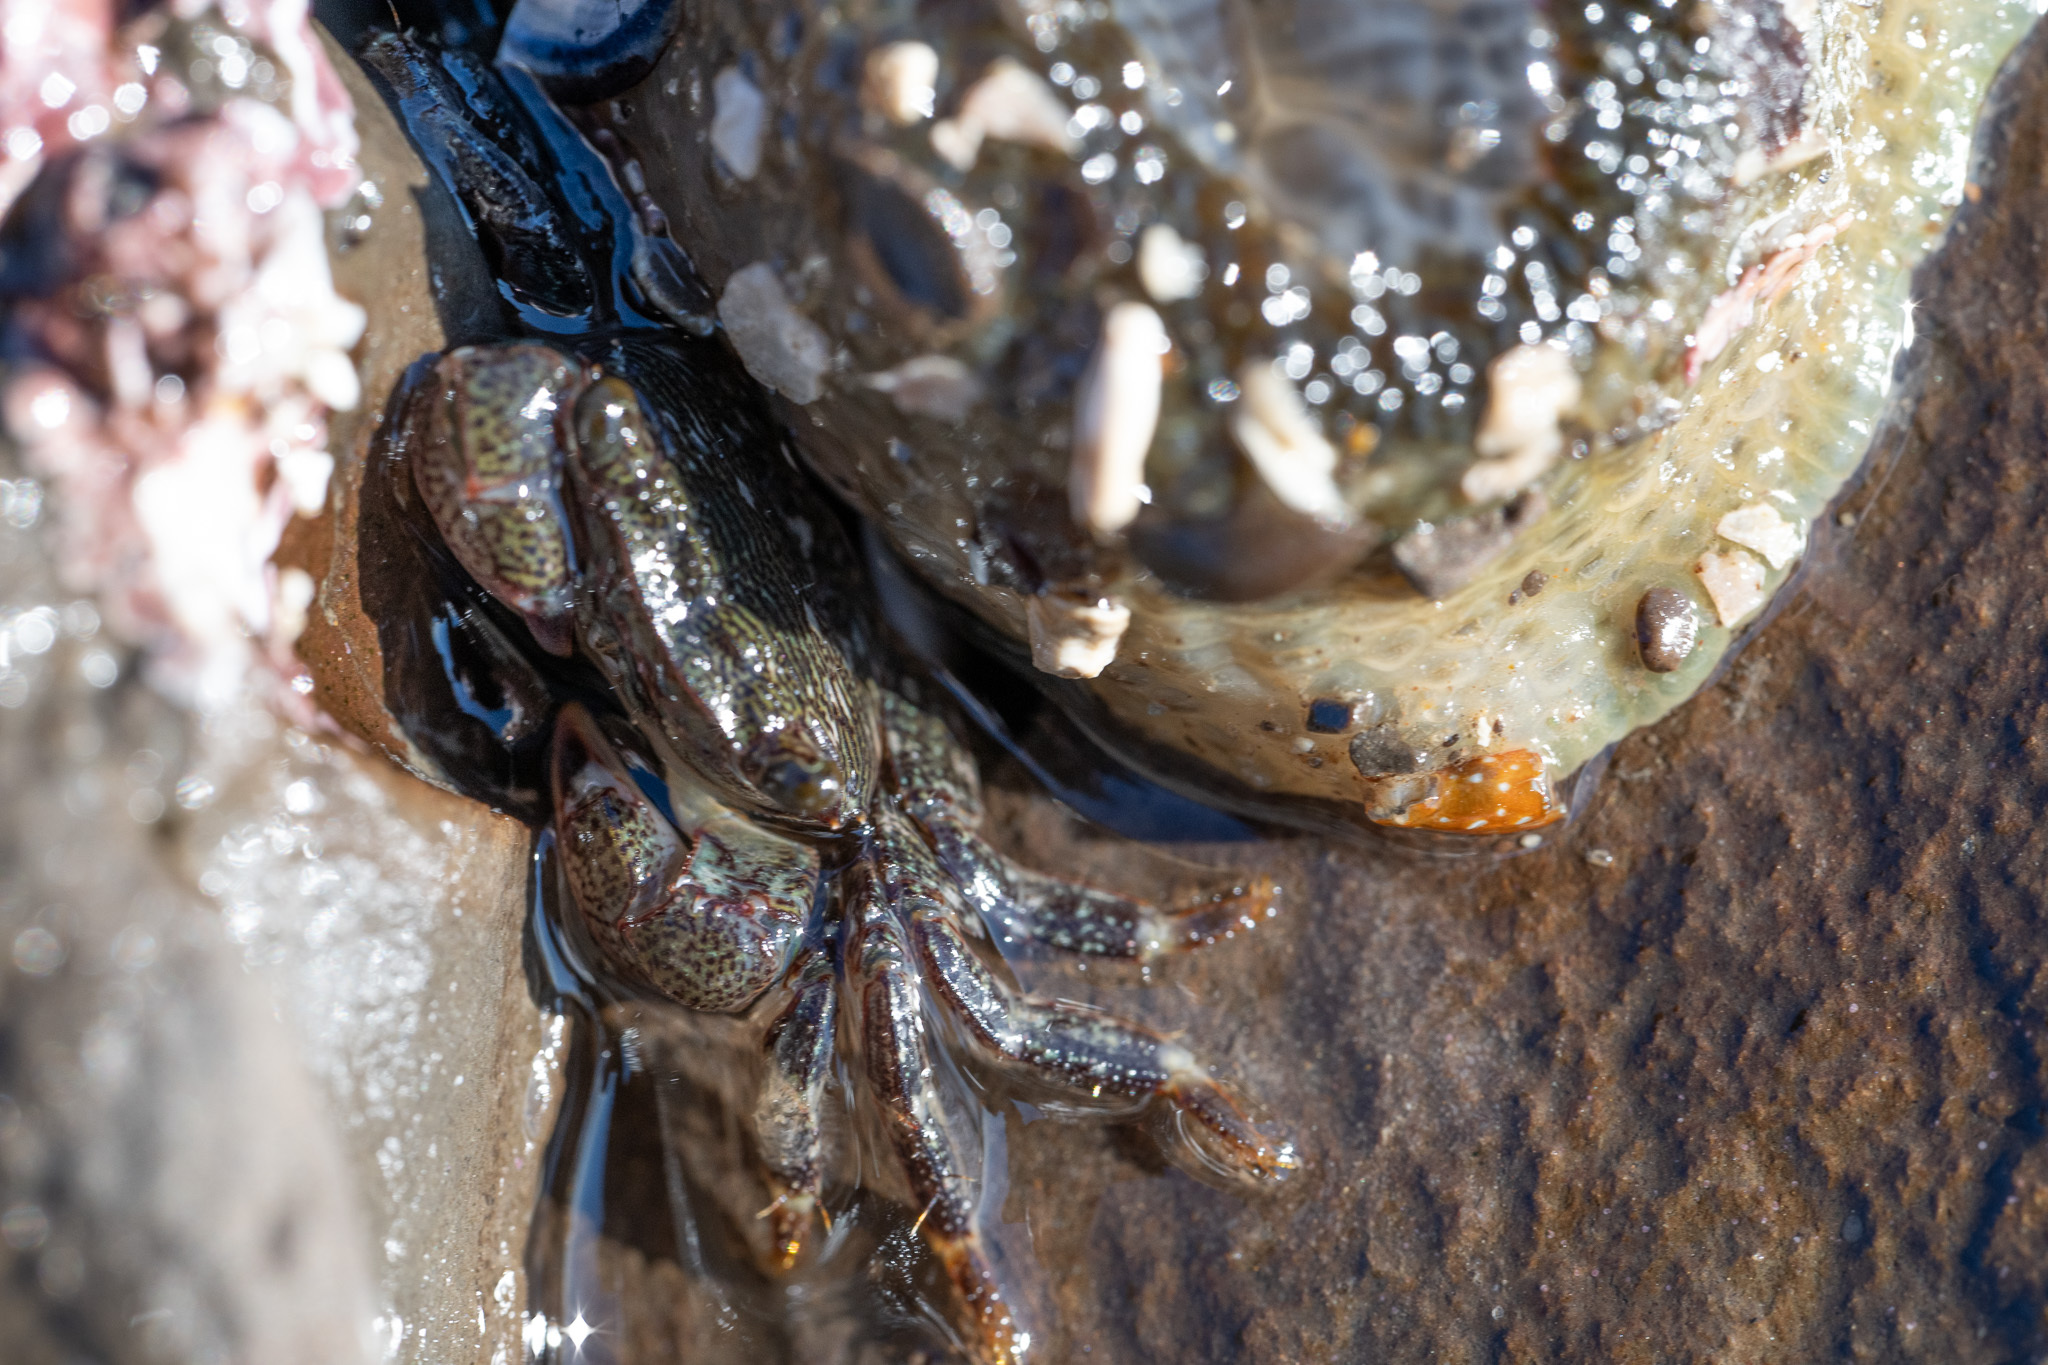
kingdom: Animalia
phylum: Arthropoda
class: Malacostraca
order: Decapoda
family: Grapsidae
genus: Pachygrapsus
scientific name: Pachygrapsus crassipes
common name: Striped shore crab
